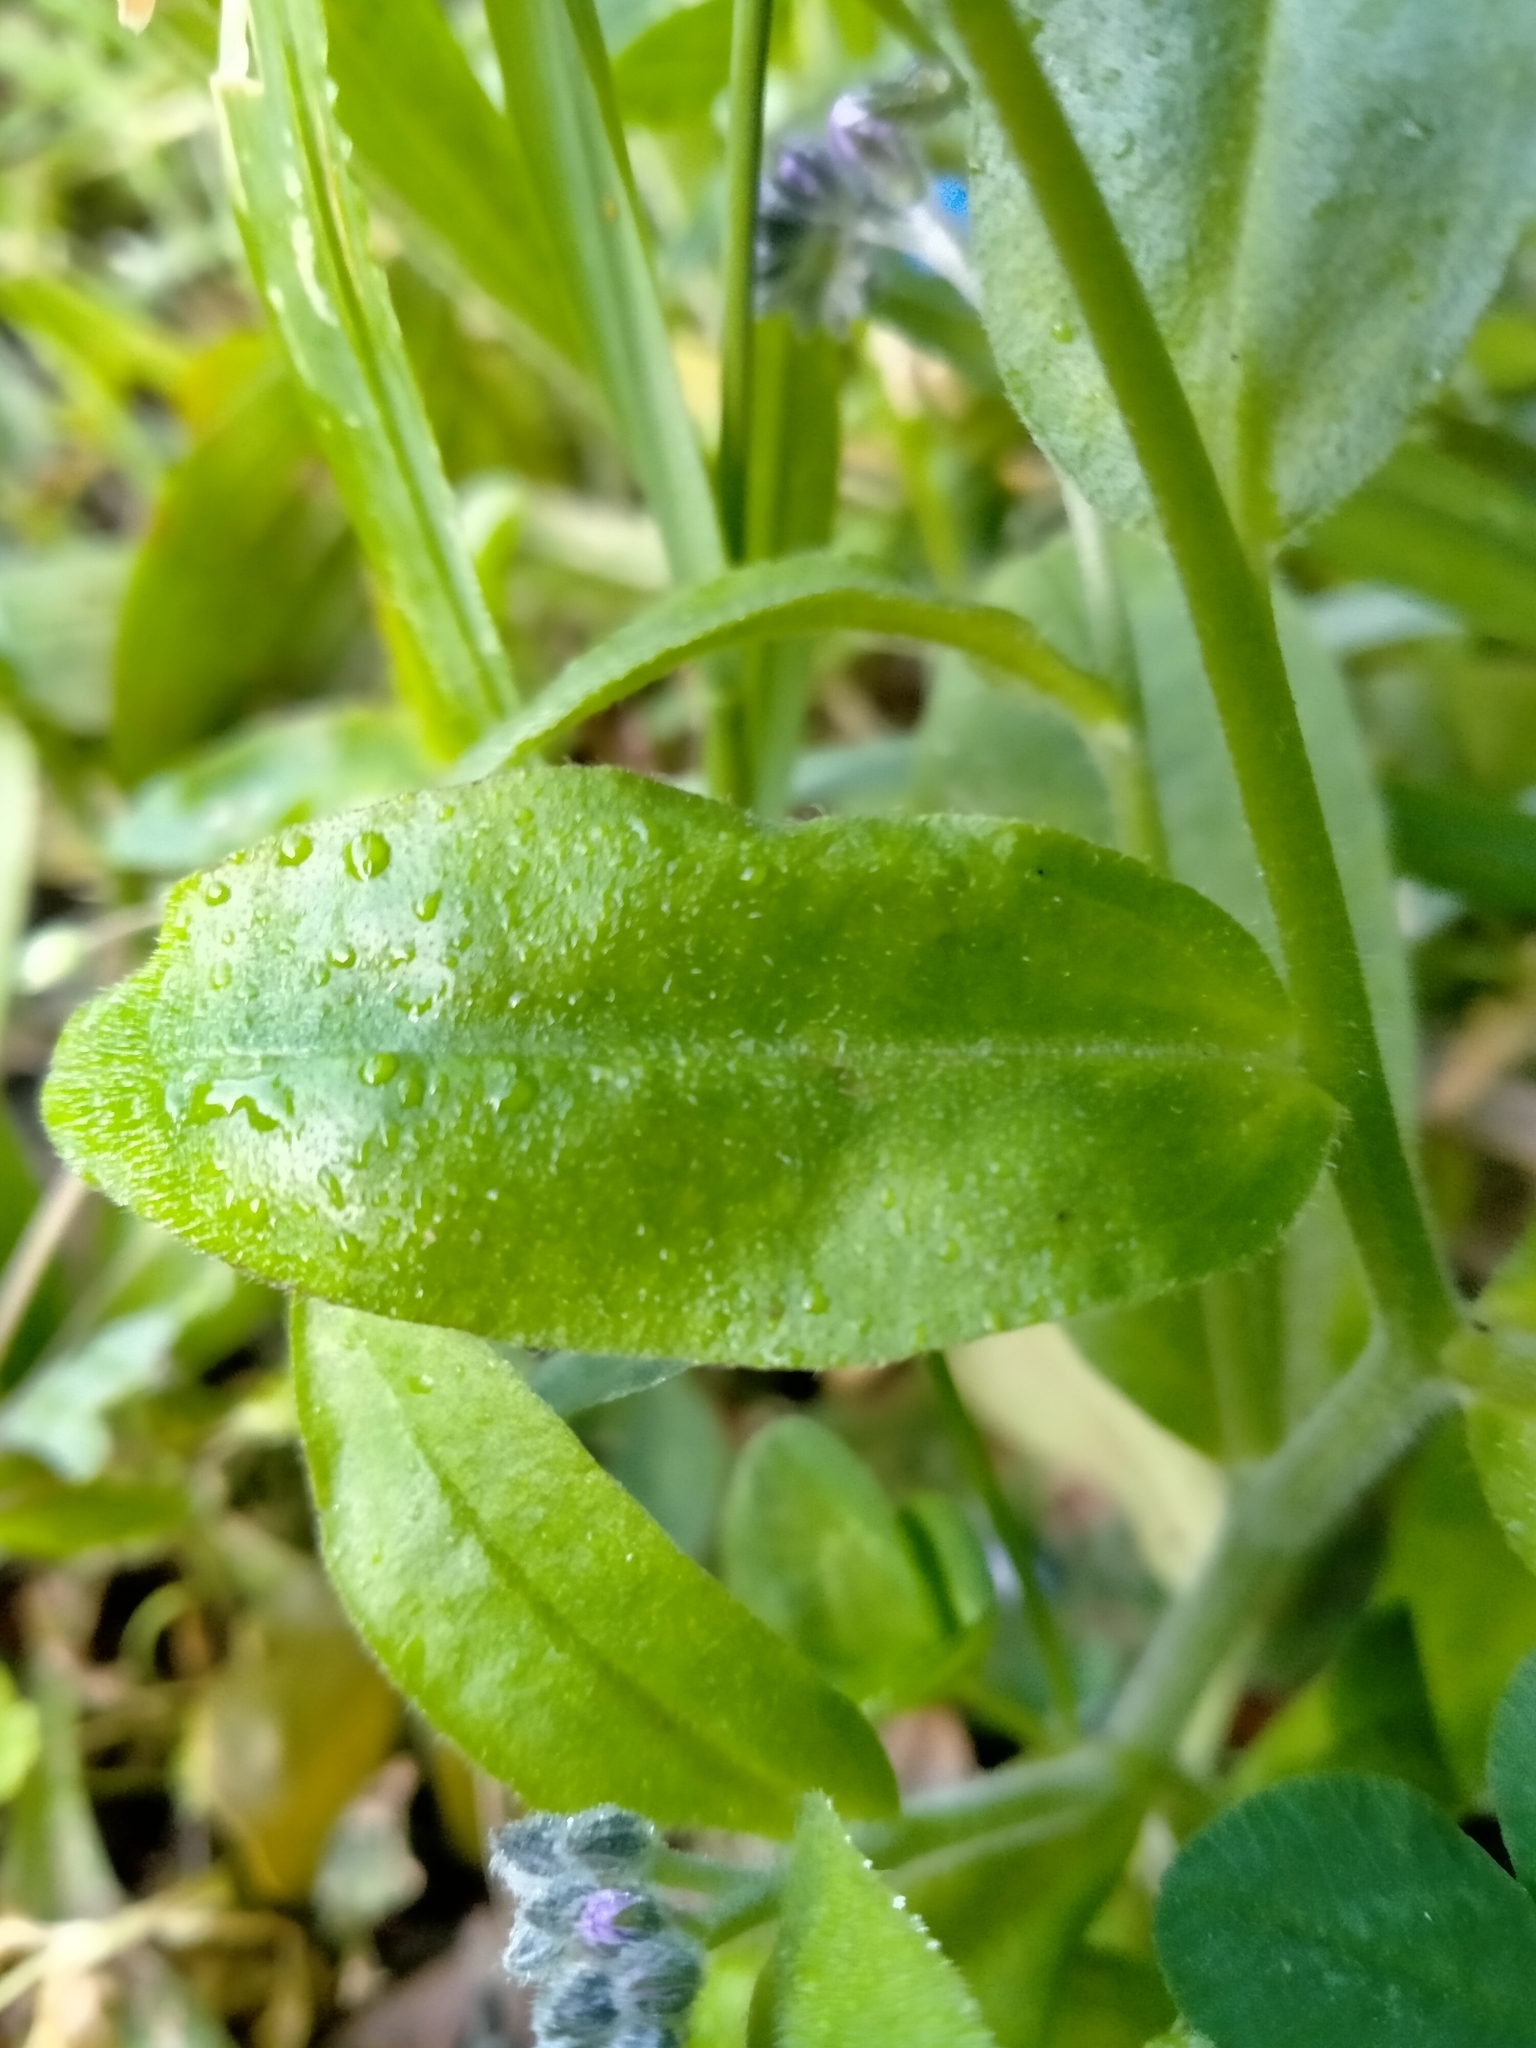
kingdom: Plantae
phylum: Tracheophyta
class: Magnoliopsida
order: Boraginales
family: Boraginaceae
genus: Myosotis
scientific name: Myosotis sylvatica
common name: Wood forget-me-not
